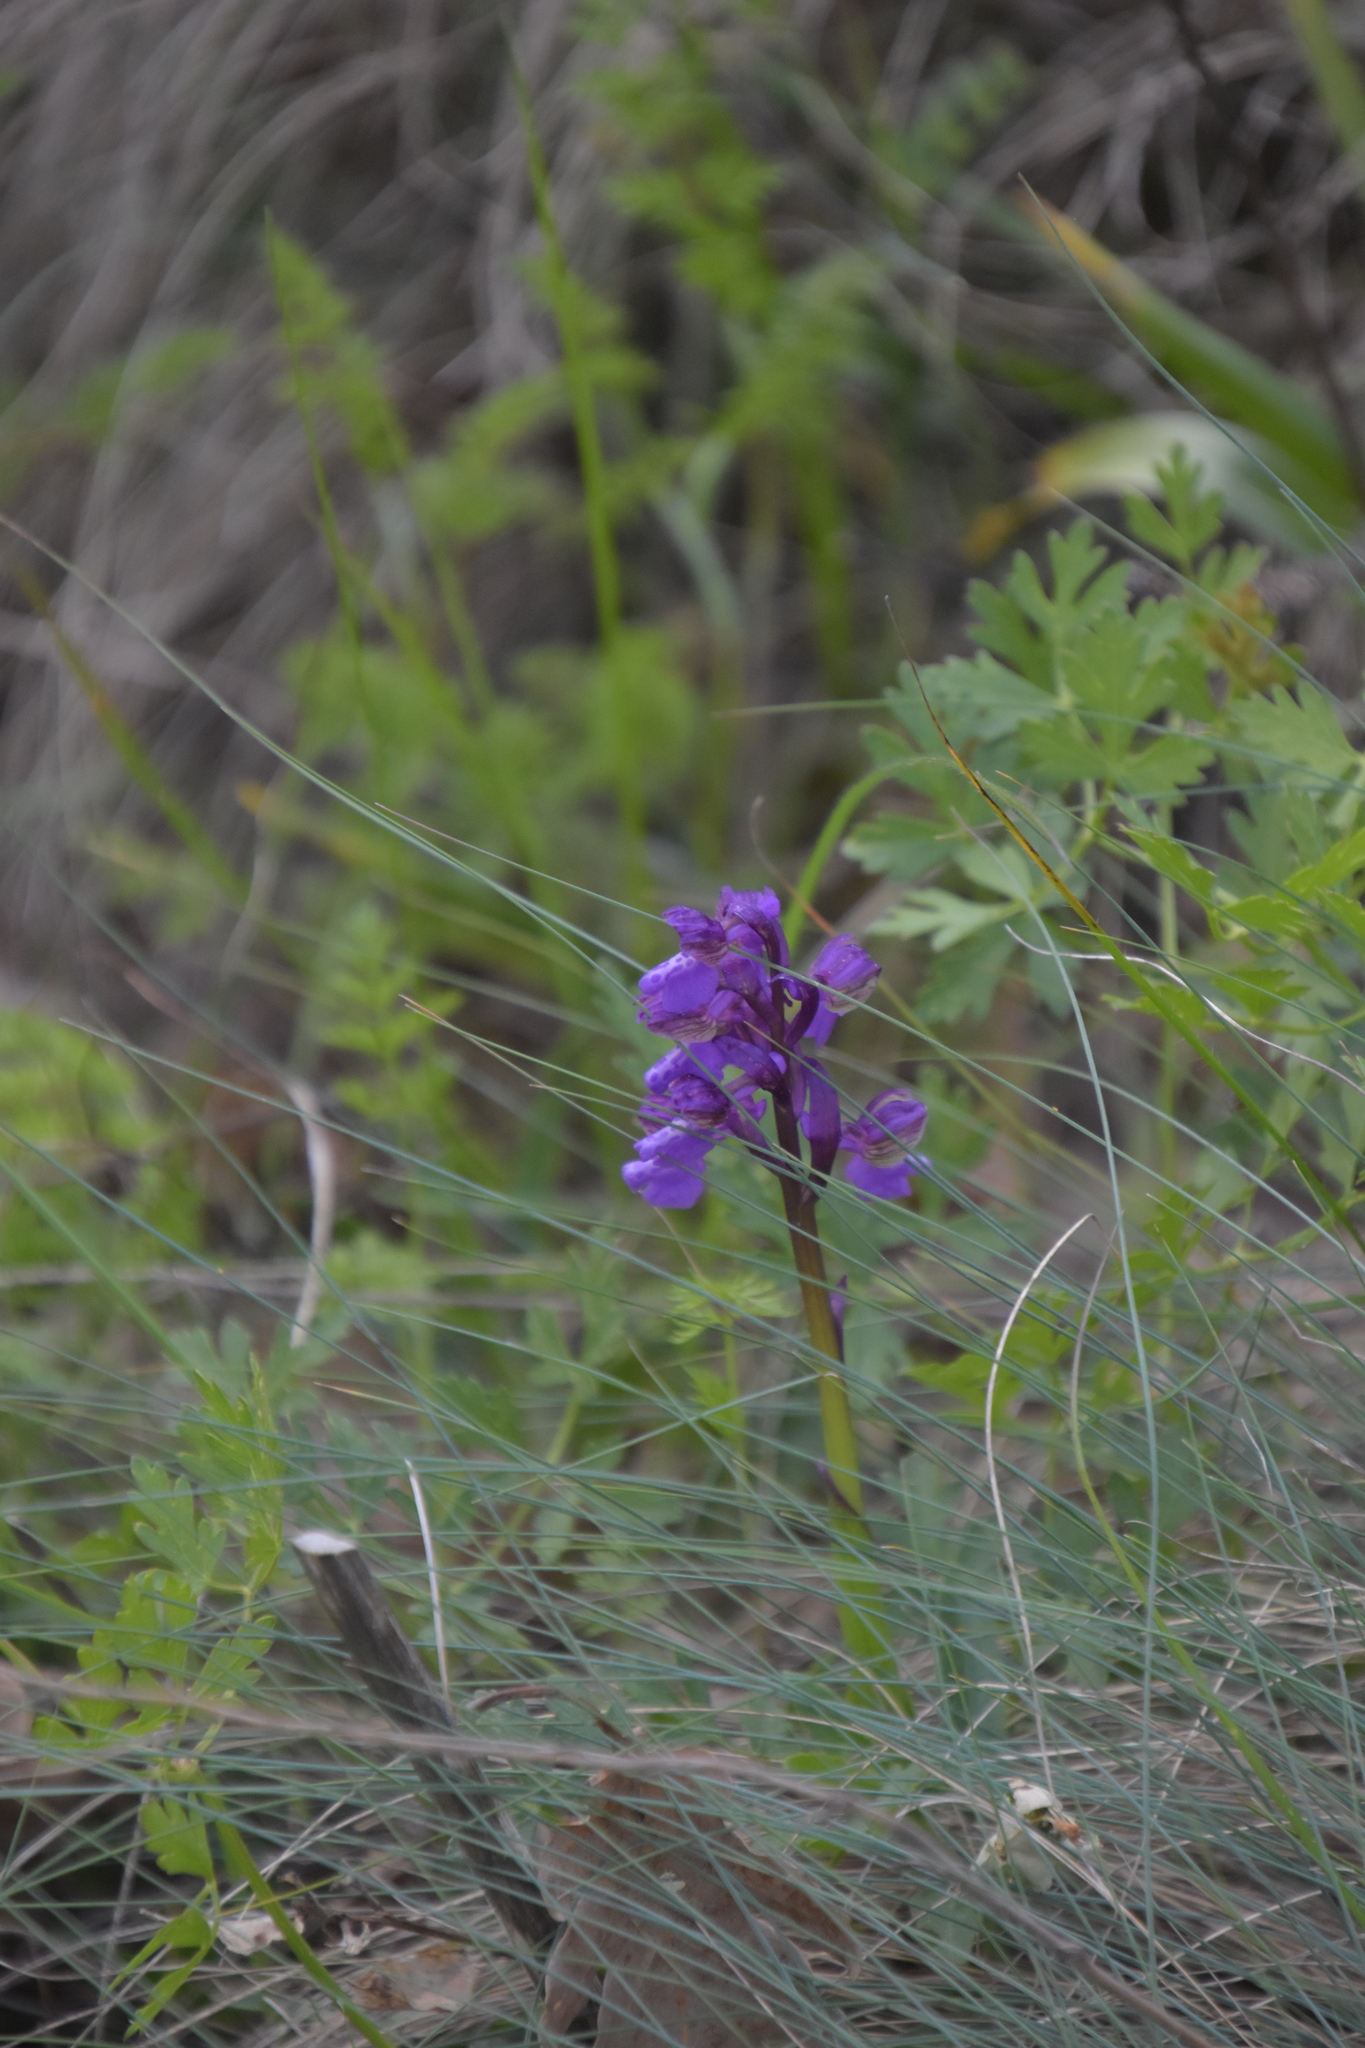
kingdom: Plantae
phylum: Tracheophyta
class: Liliopsida
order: Asparagales
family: Orchidaceae
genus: Anacamptis
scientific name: Anacamptis morio
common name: Green-winged orchid
